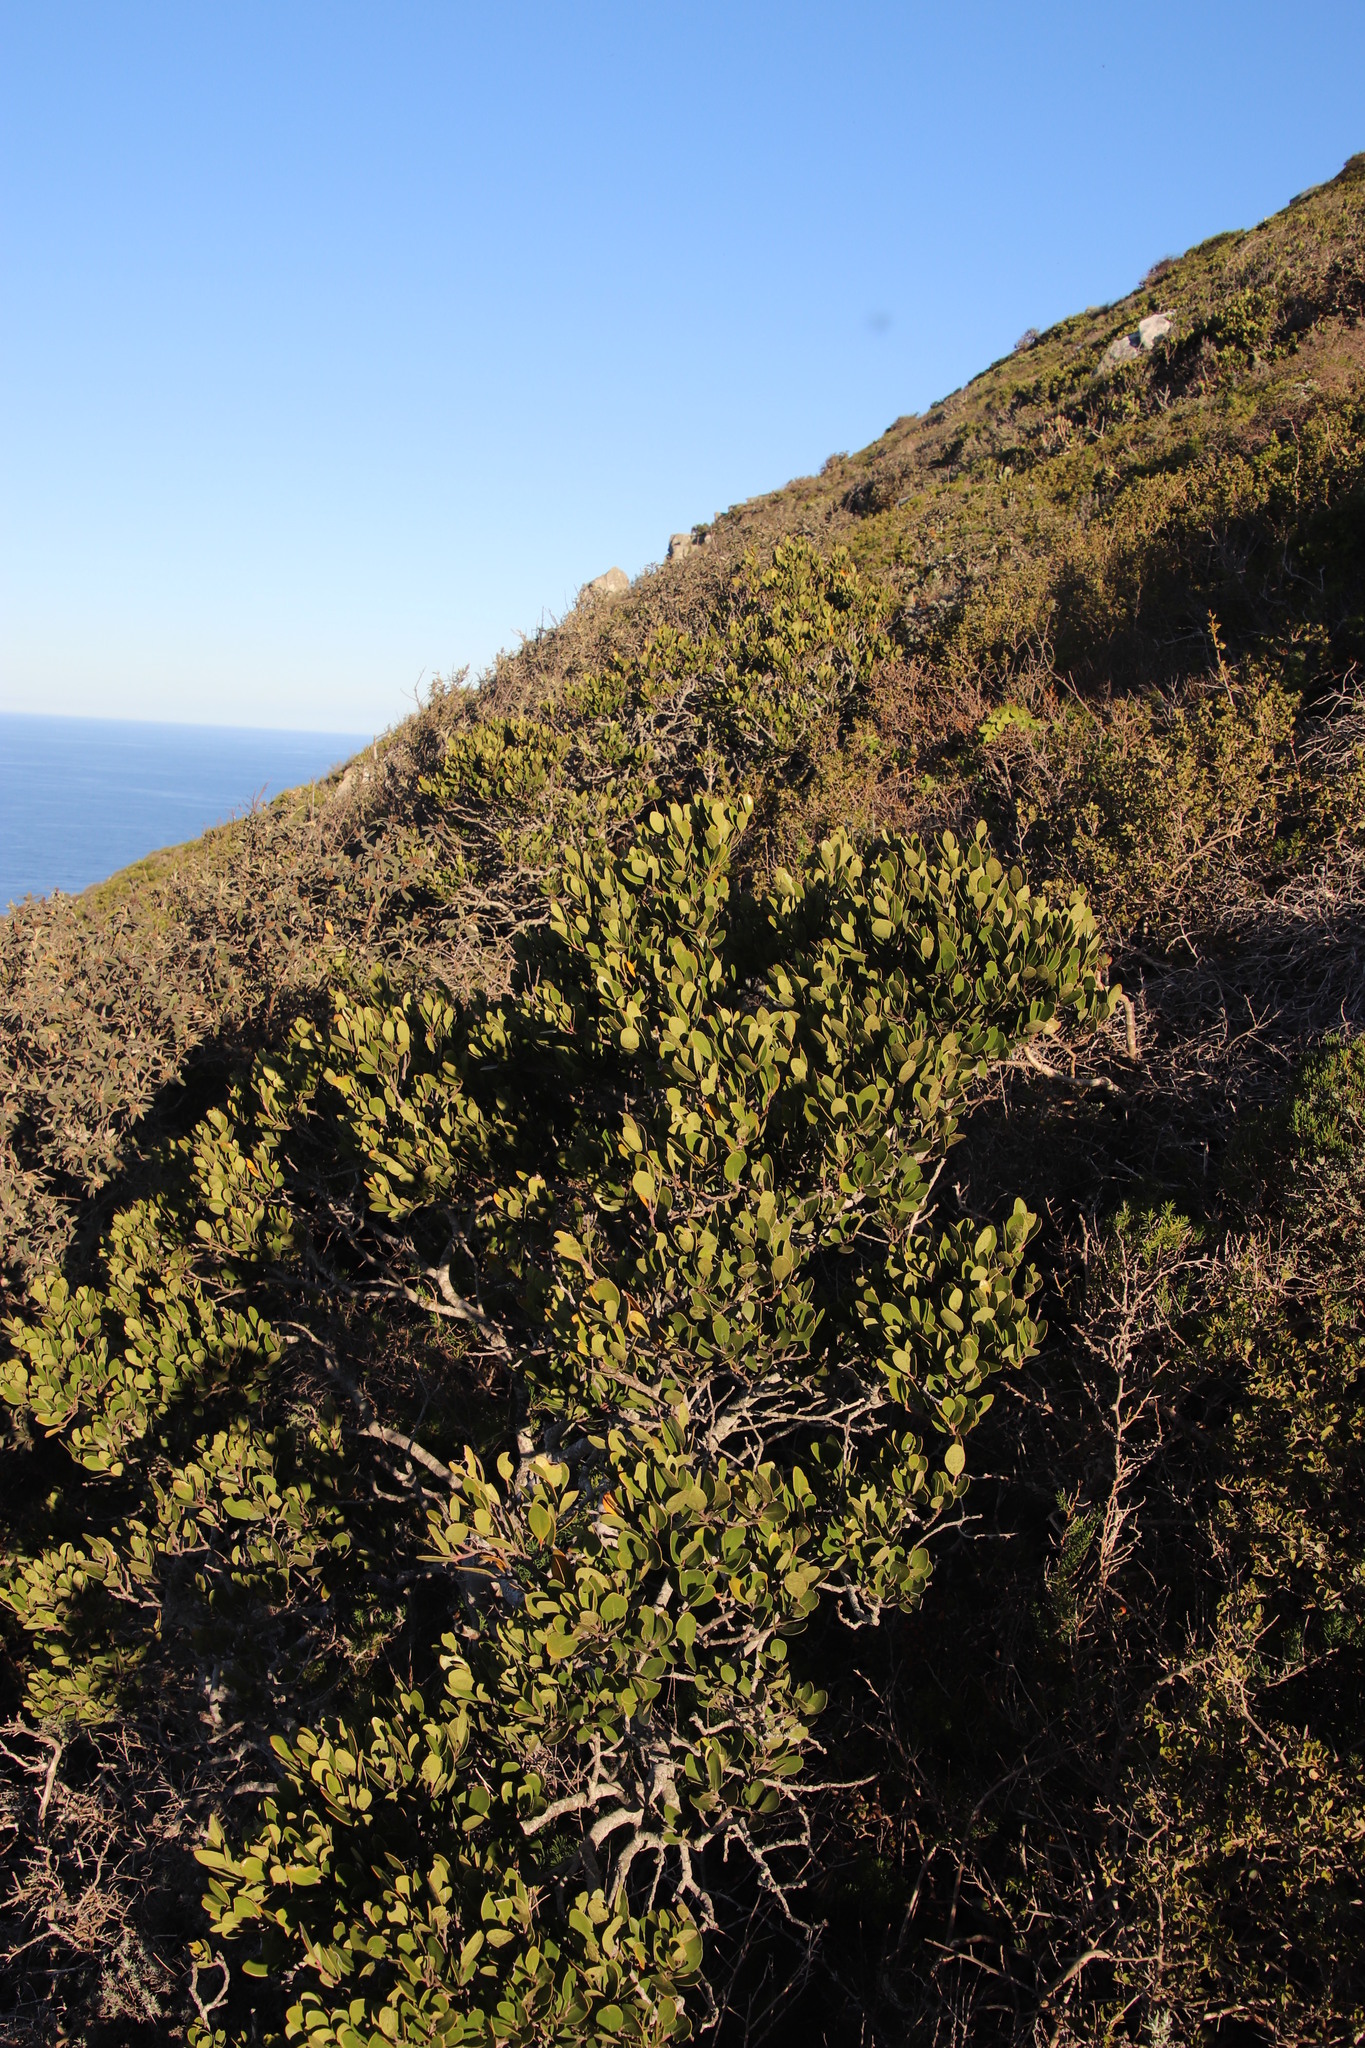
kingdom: Plantae
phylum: Tracheophyta
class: Magnoliopsida
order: Celastrales
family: Celastraceae
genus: Pterocelastrus
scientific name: Pterocelastrus tricuspidatus
